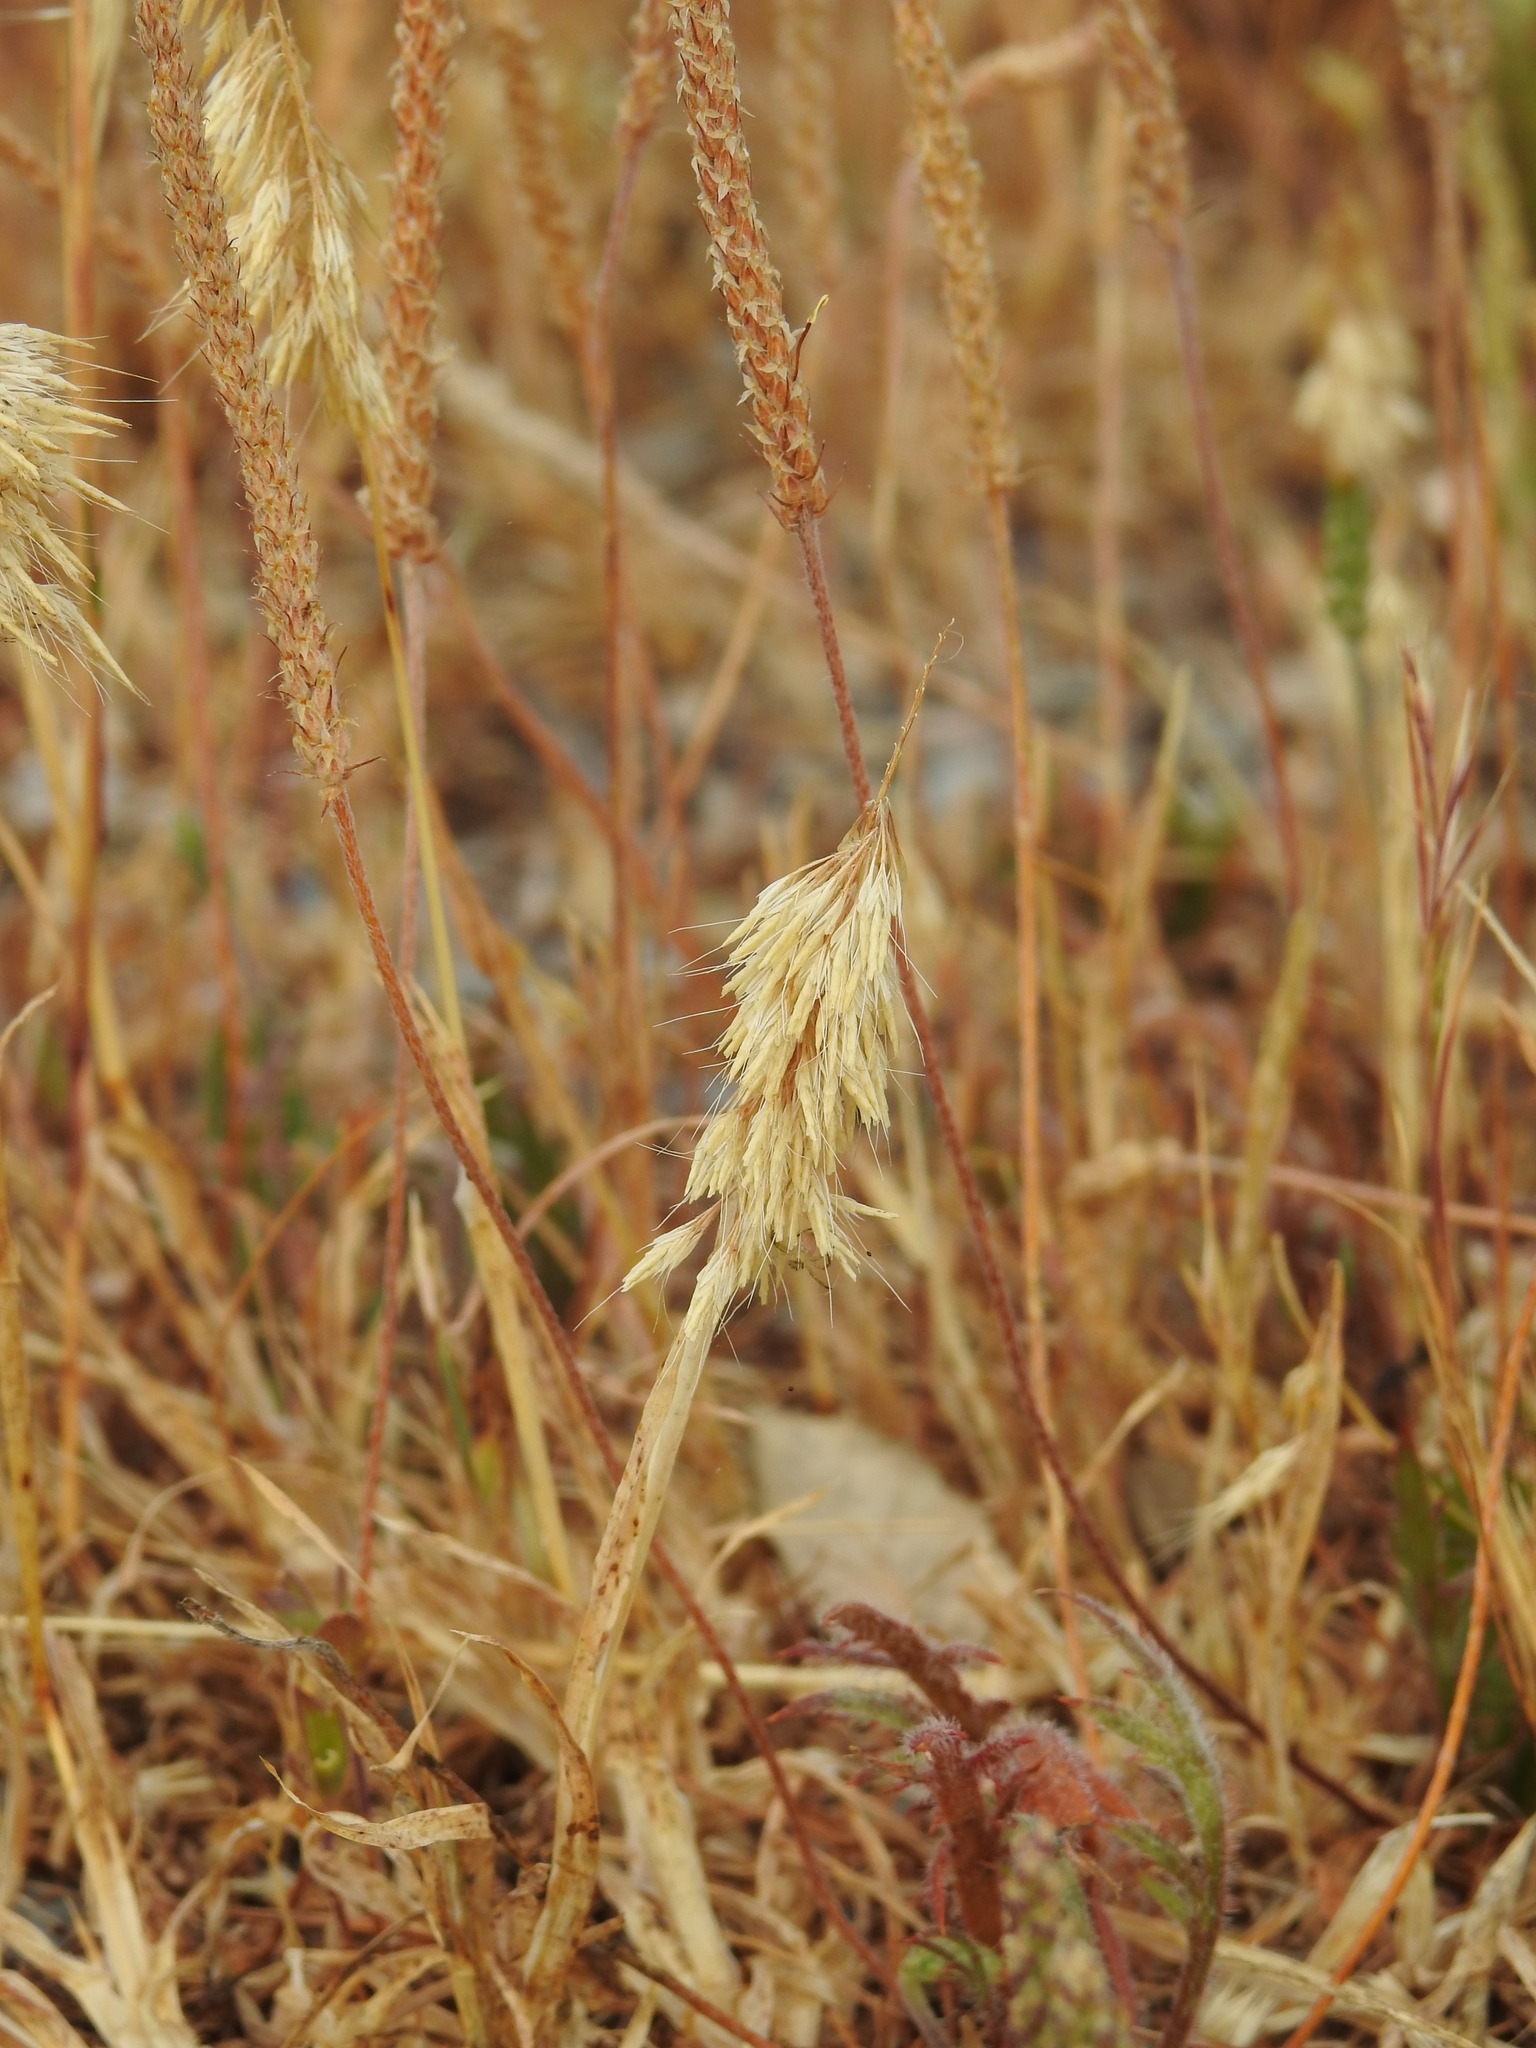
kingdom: Plantae
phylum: Tracheophyta
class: Liliopsida
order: Poales
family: Poaceae
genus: Lamarckia
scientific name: Lamarckia aurea
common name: Golden dog's-tail
